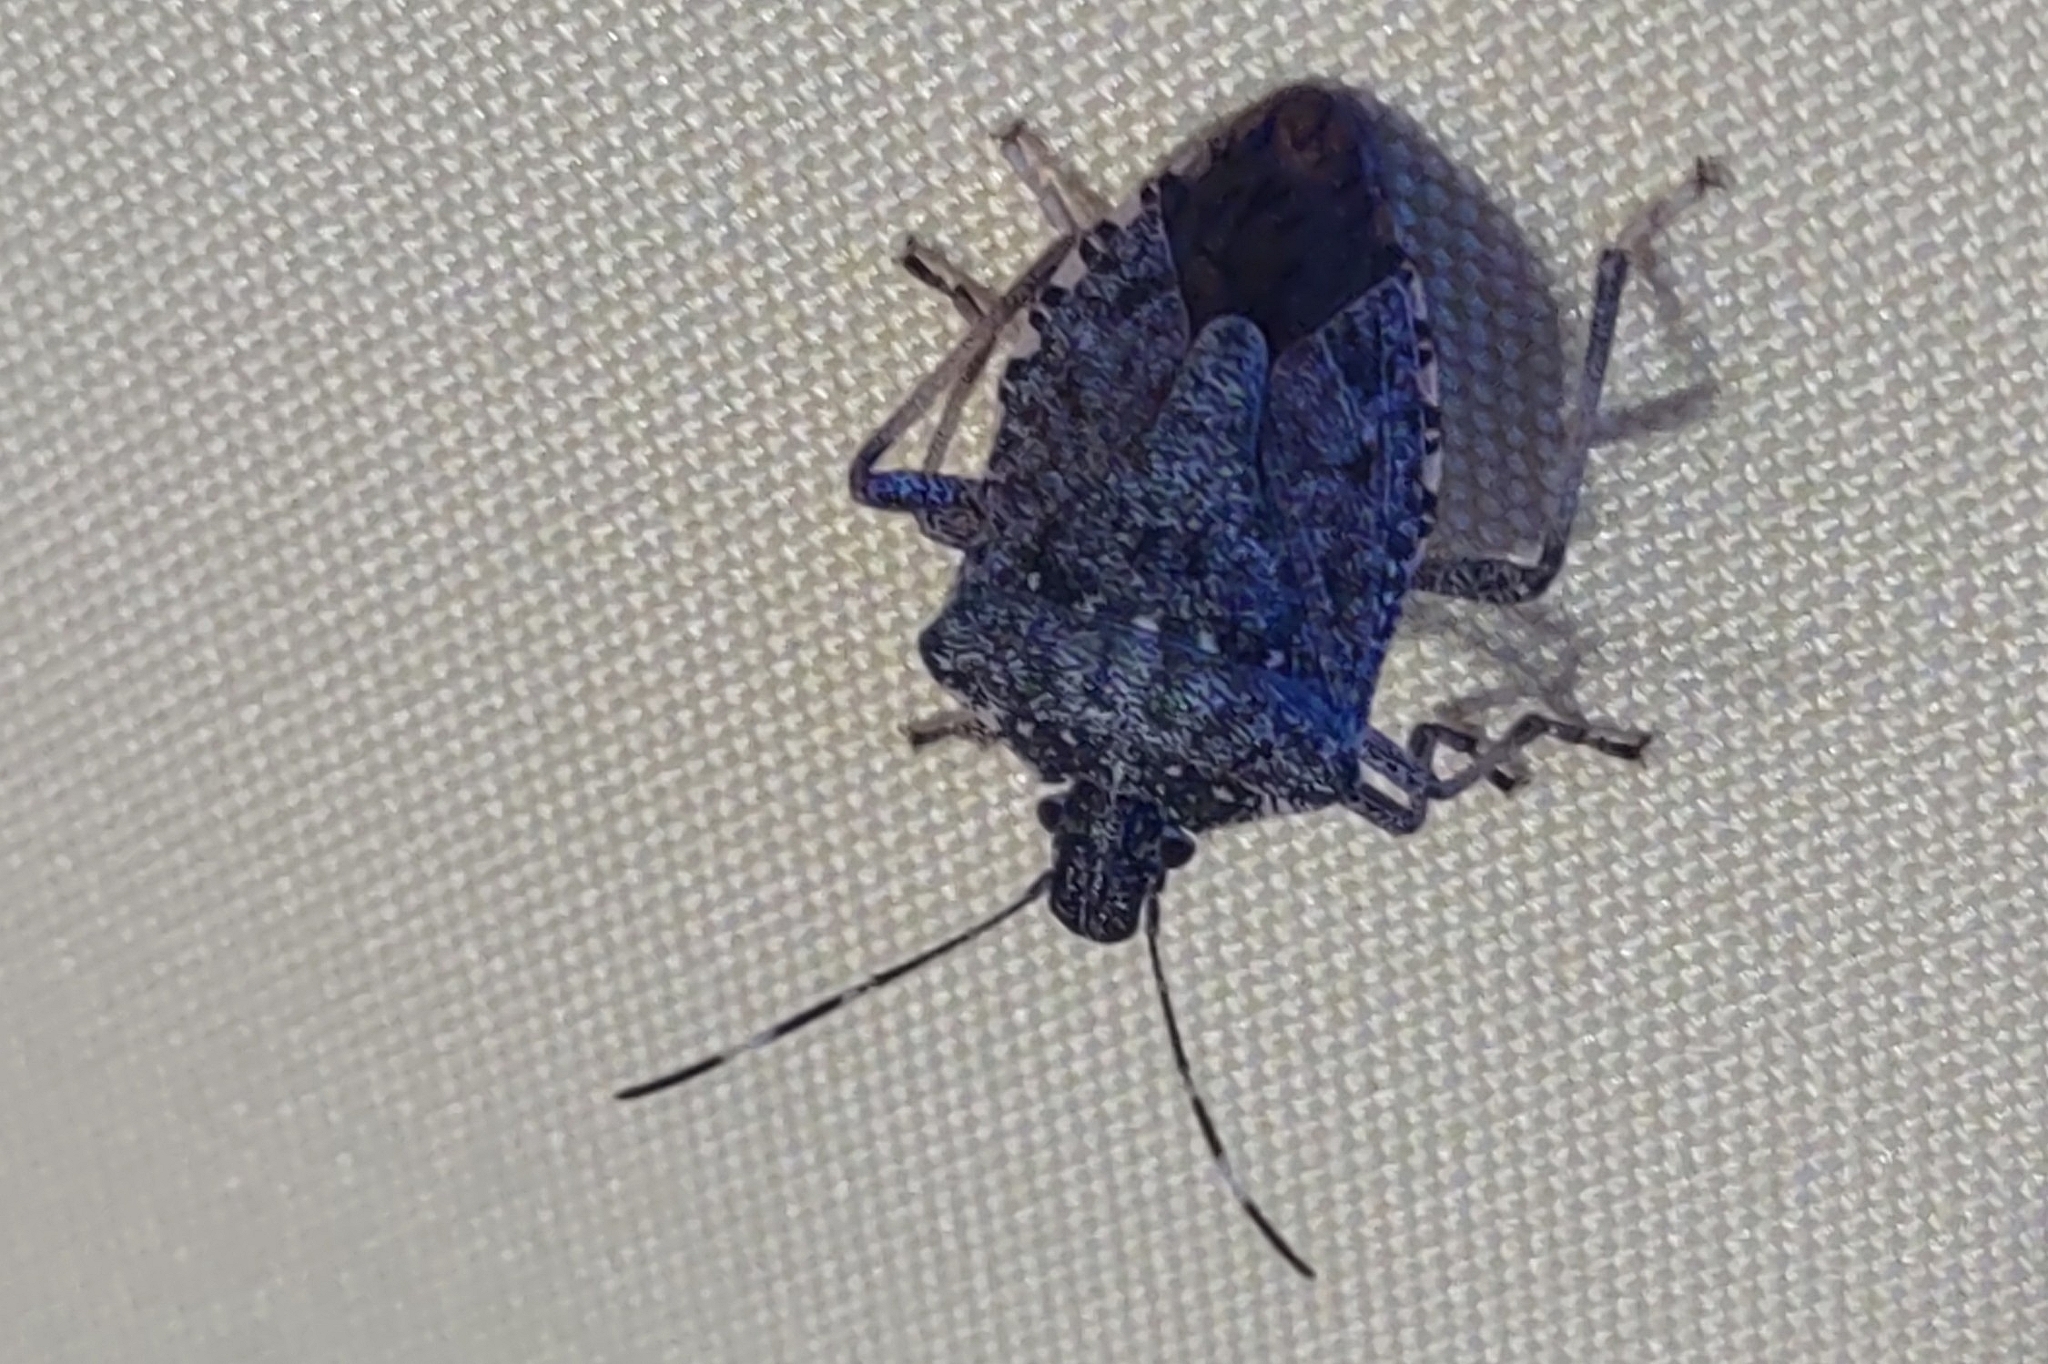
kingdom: Animalia
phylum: Arthropoda
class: Insecta
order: Hemiptera
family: Pentatomidae
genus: Halyomorpha
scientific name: Halyomorpha halys
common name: Brown marmorated stink bug
